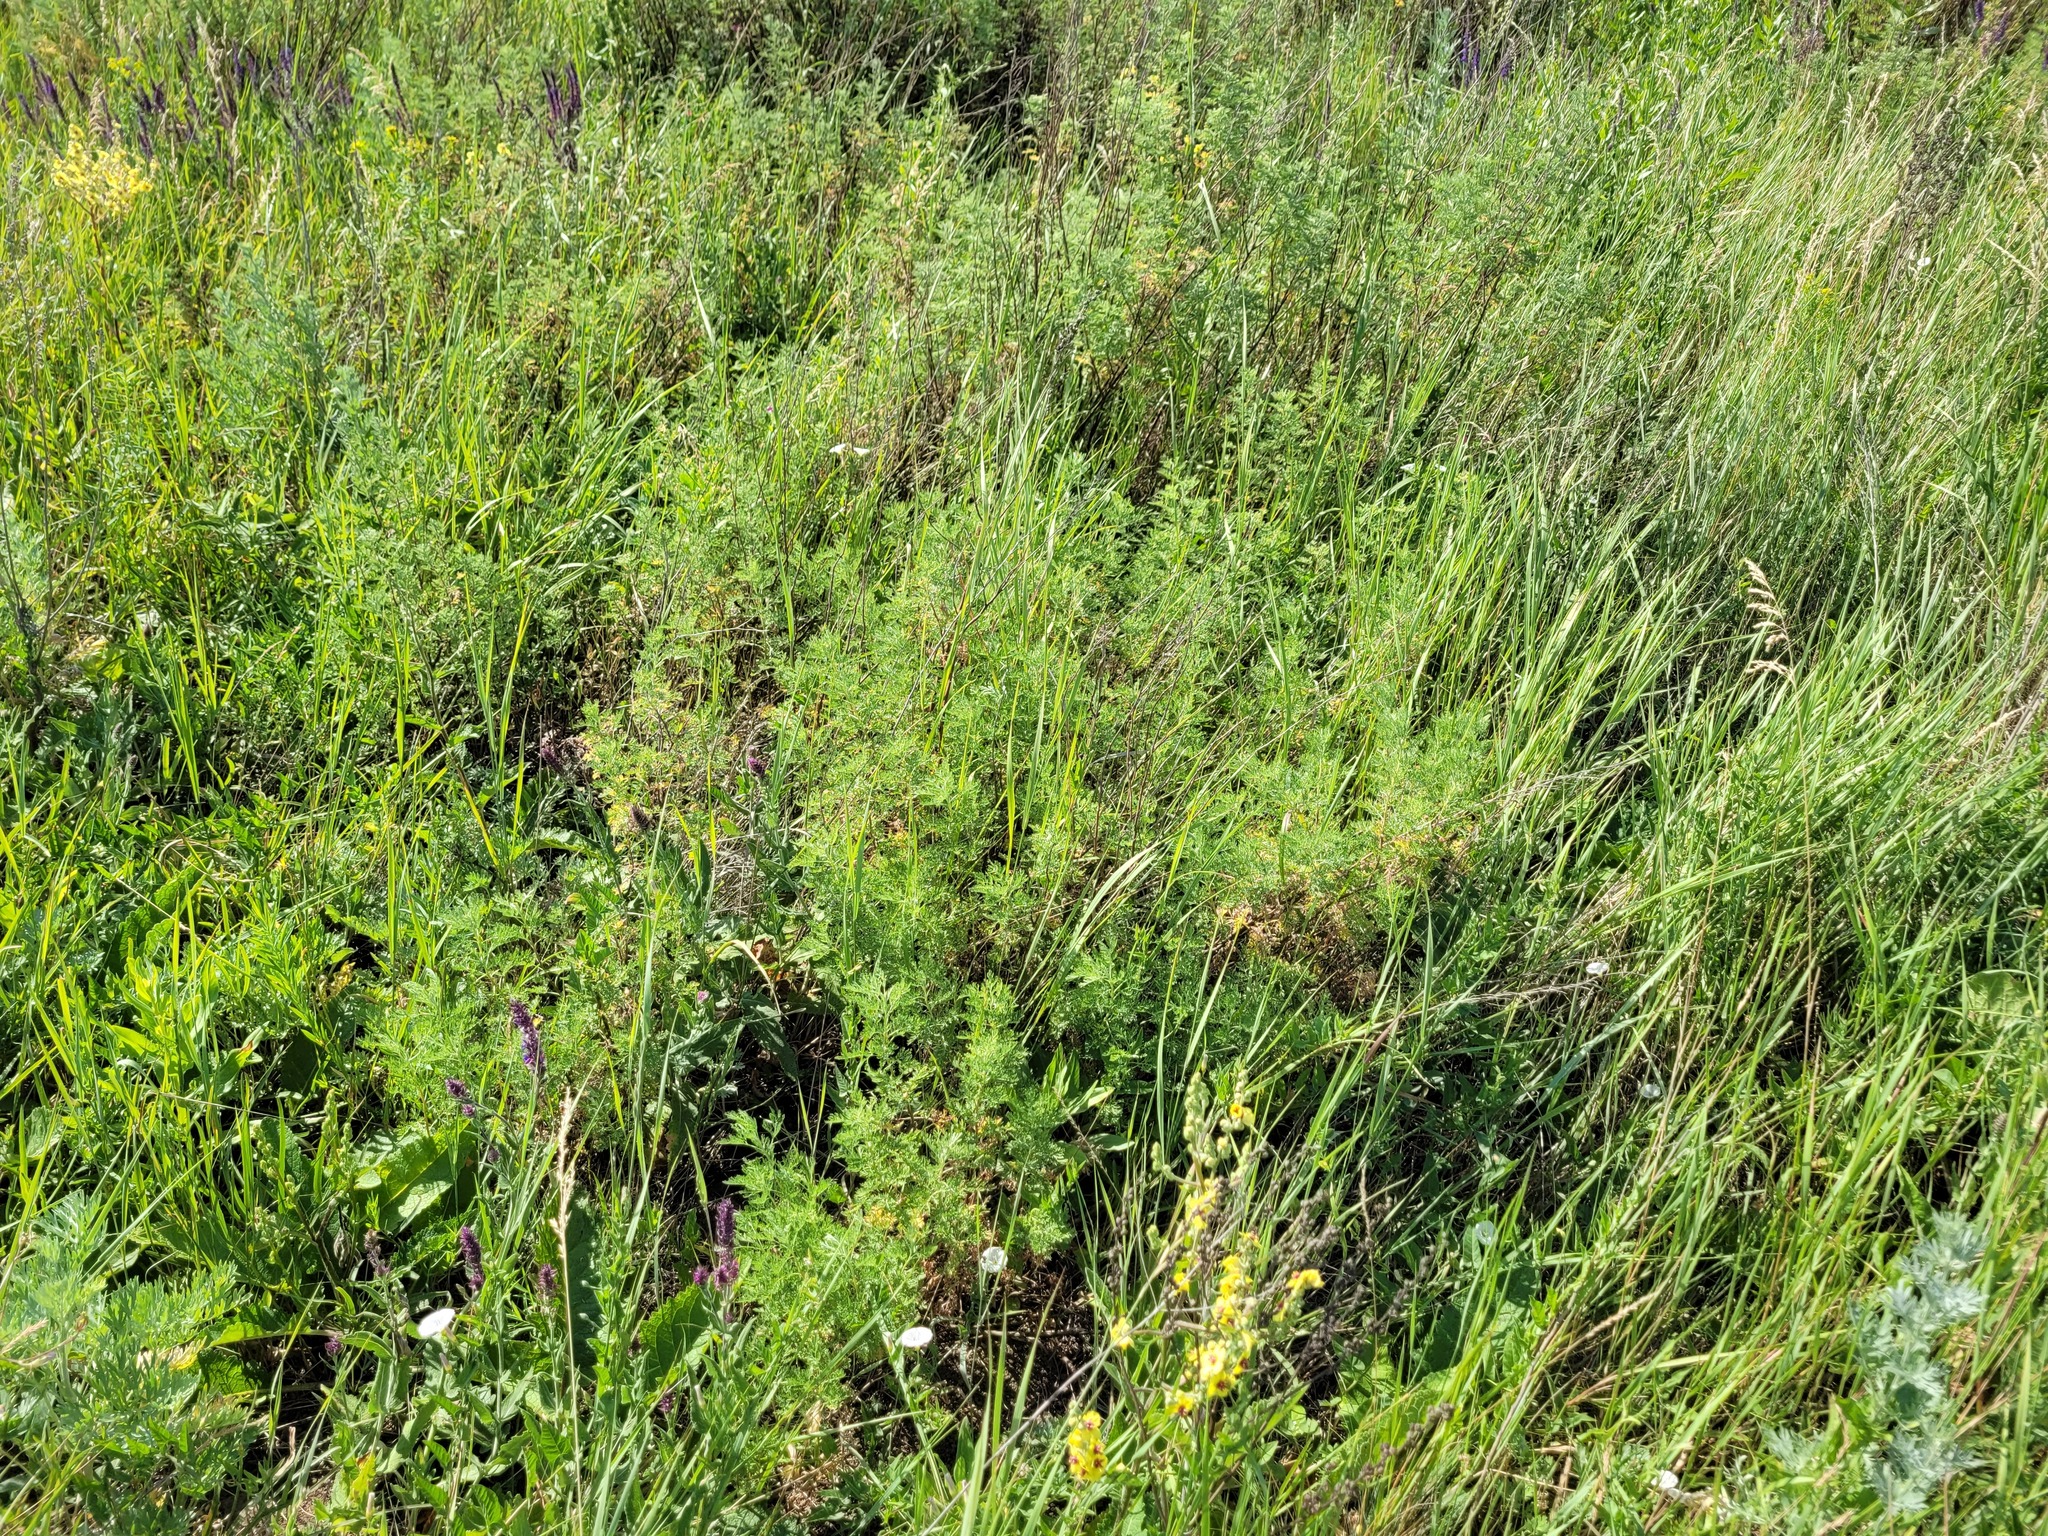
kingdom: Plantae
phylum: Tracheophyta
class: Magnoliopsida
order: Asterales
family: Asteraceae
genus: Artemisia
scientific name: Artemisia abrotanum
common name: Southernwood
